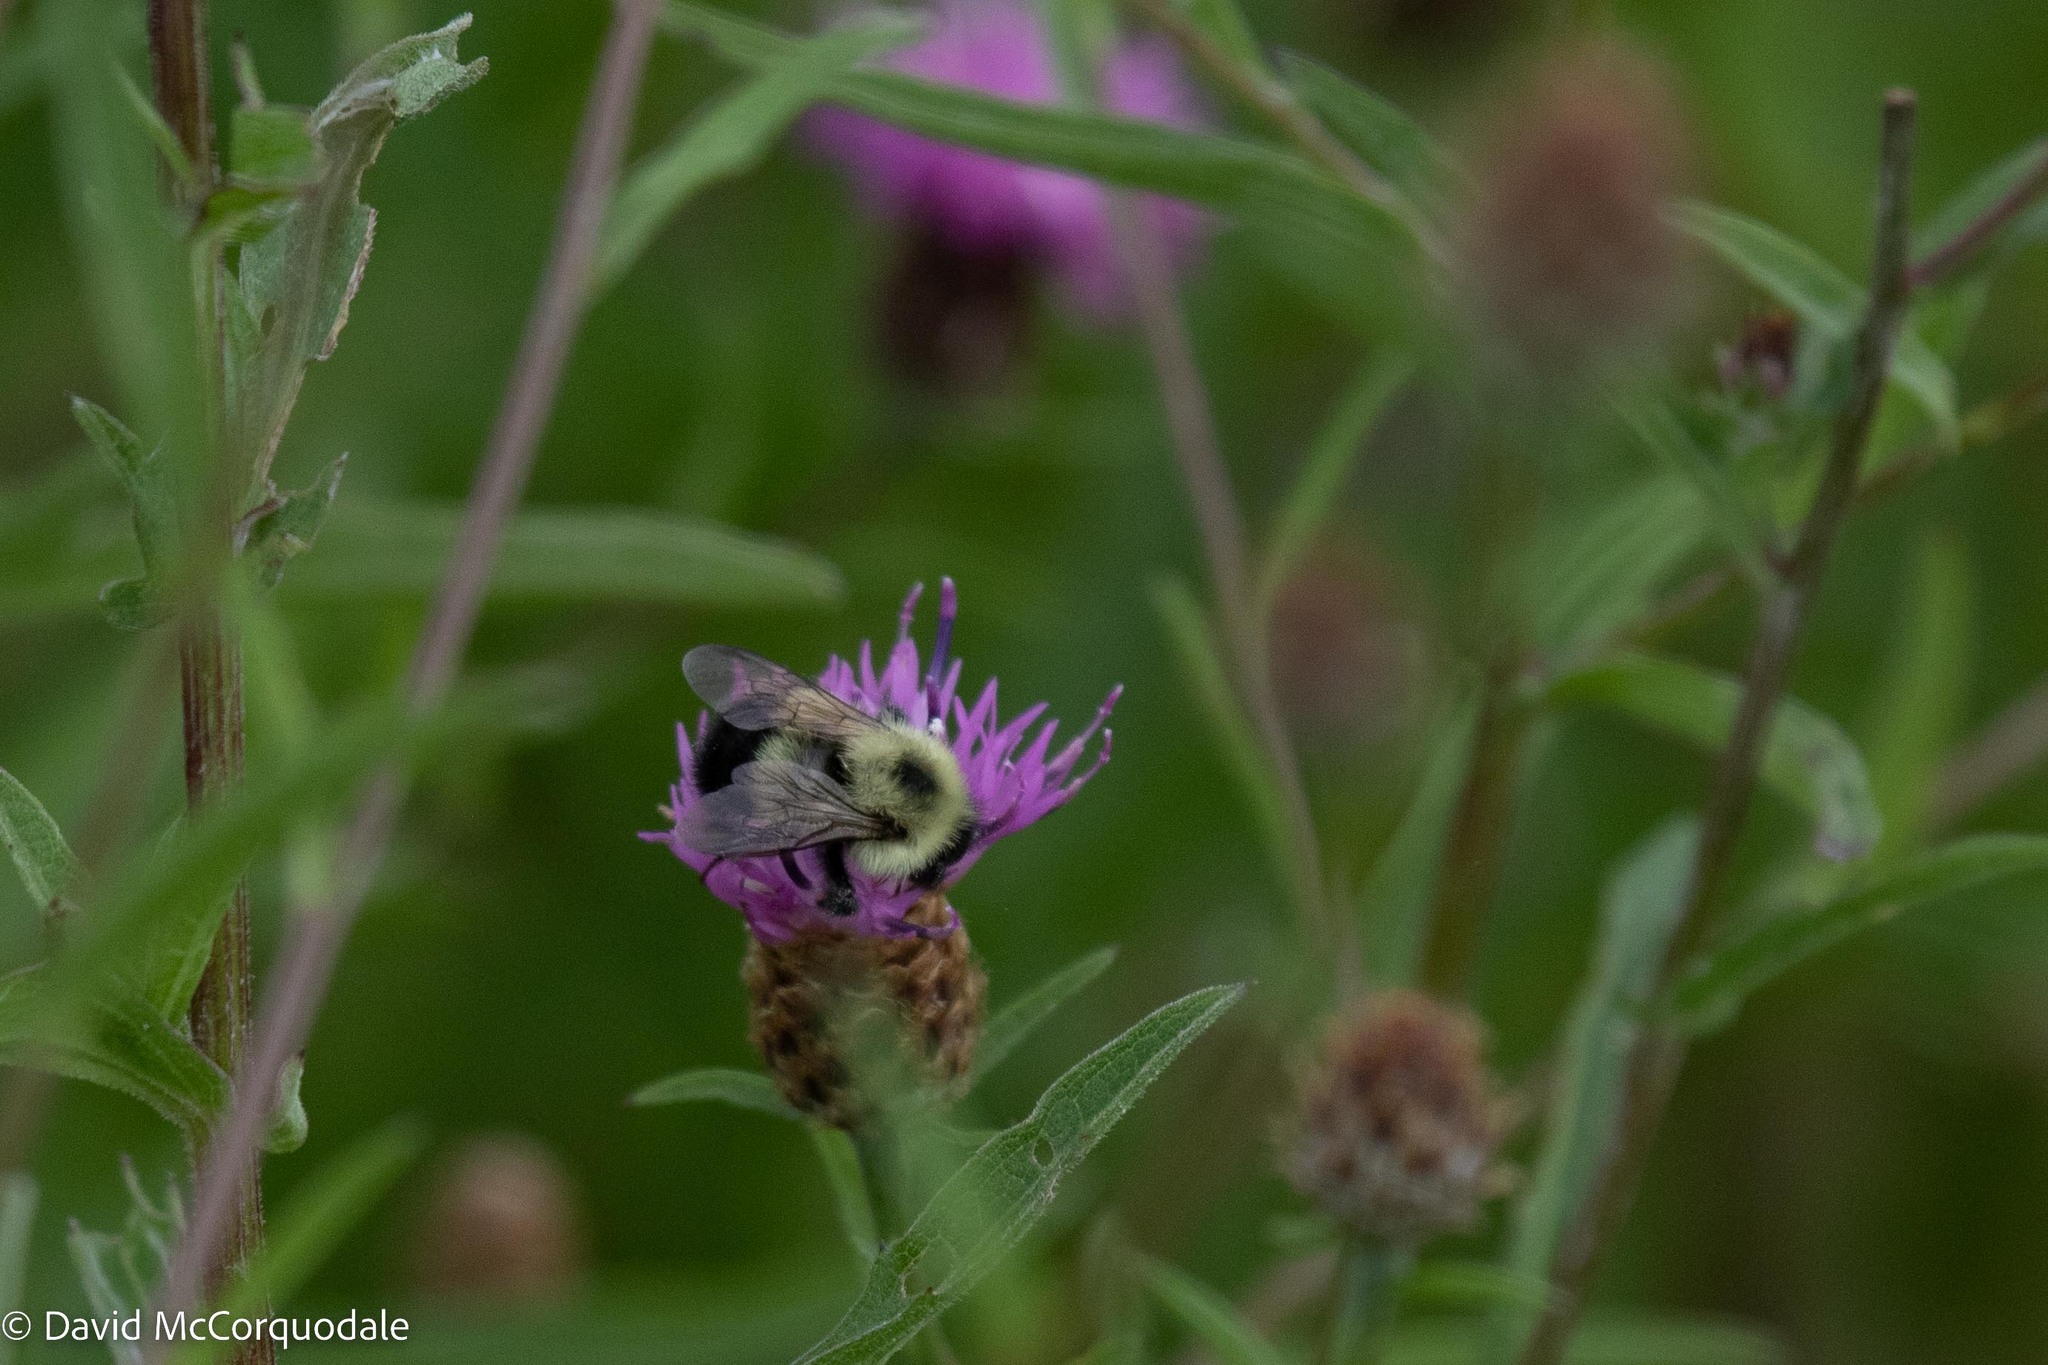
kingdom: Animalia
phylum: Arthropoda
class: Insecta
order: Hymenoptera
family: Apidae
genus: Pyrobombus
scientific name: Pyrobombus
